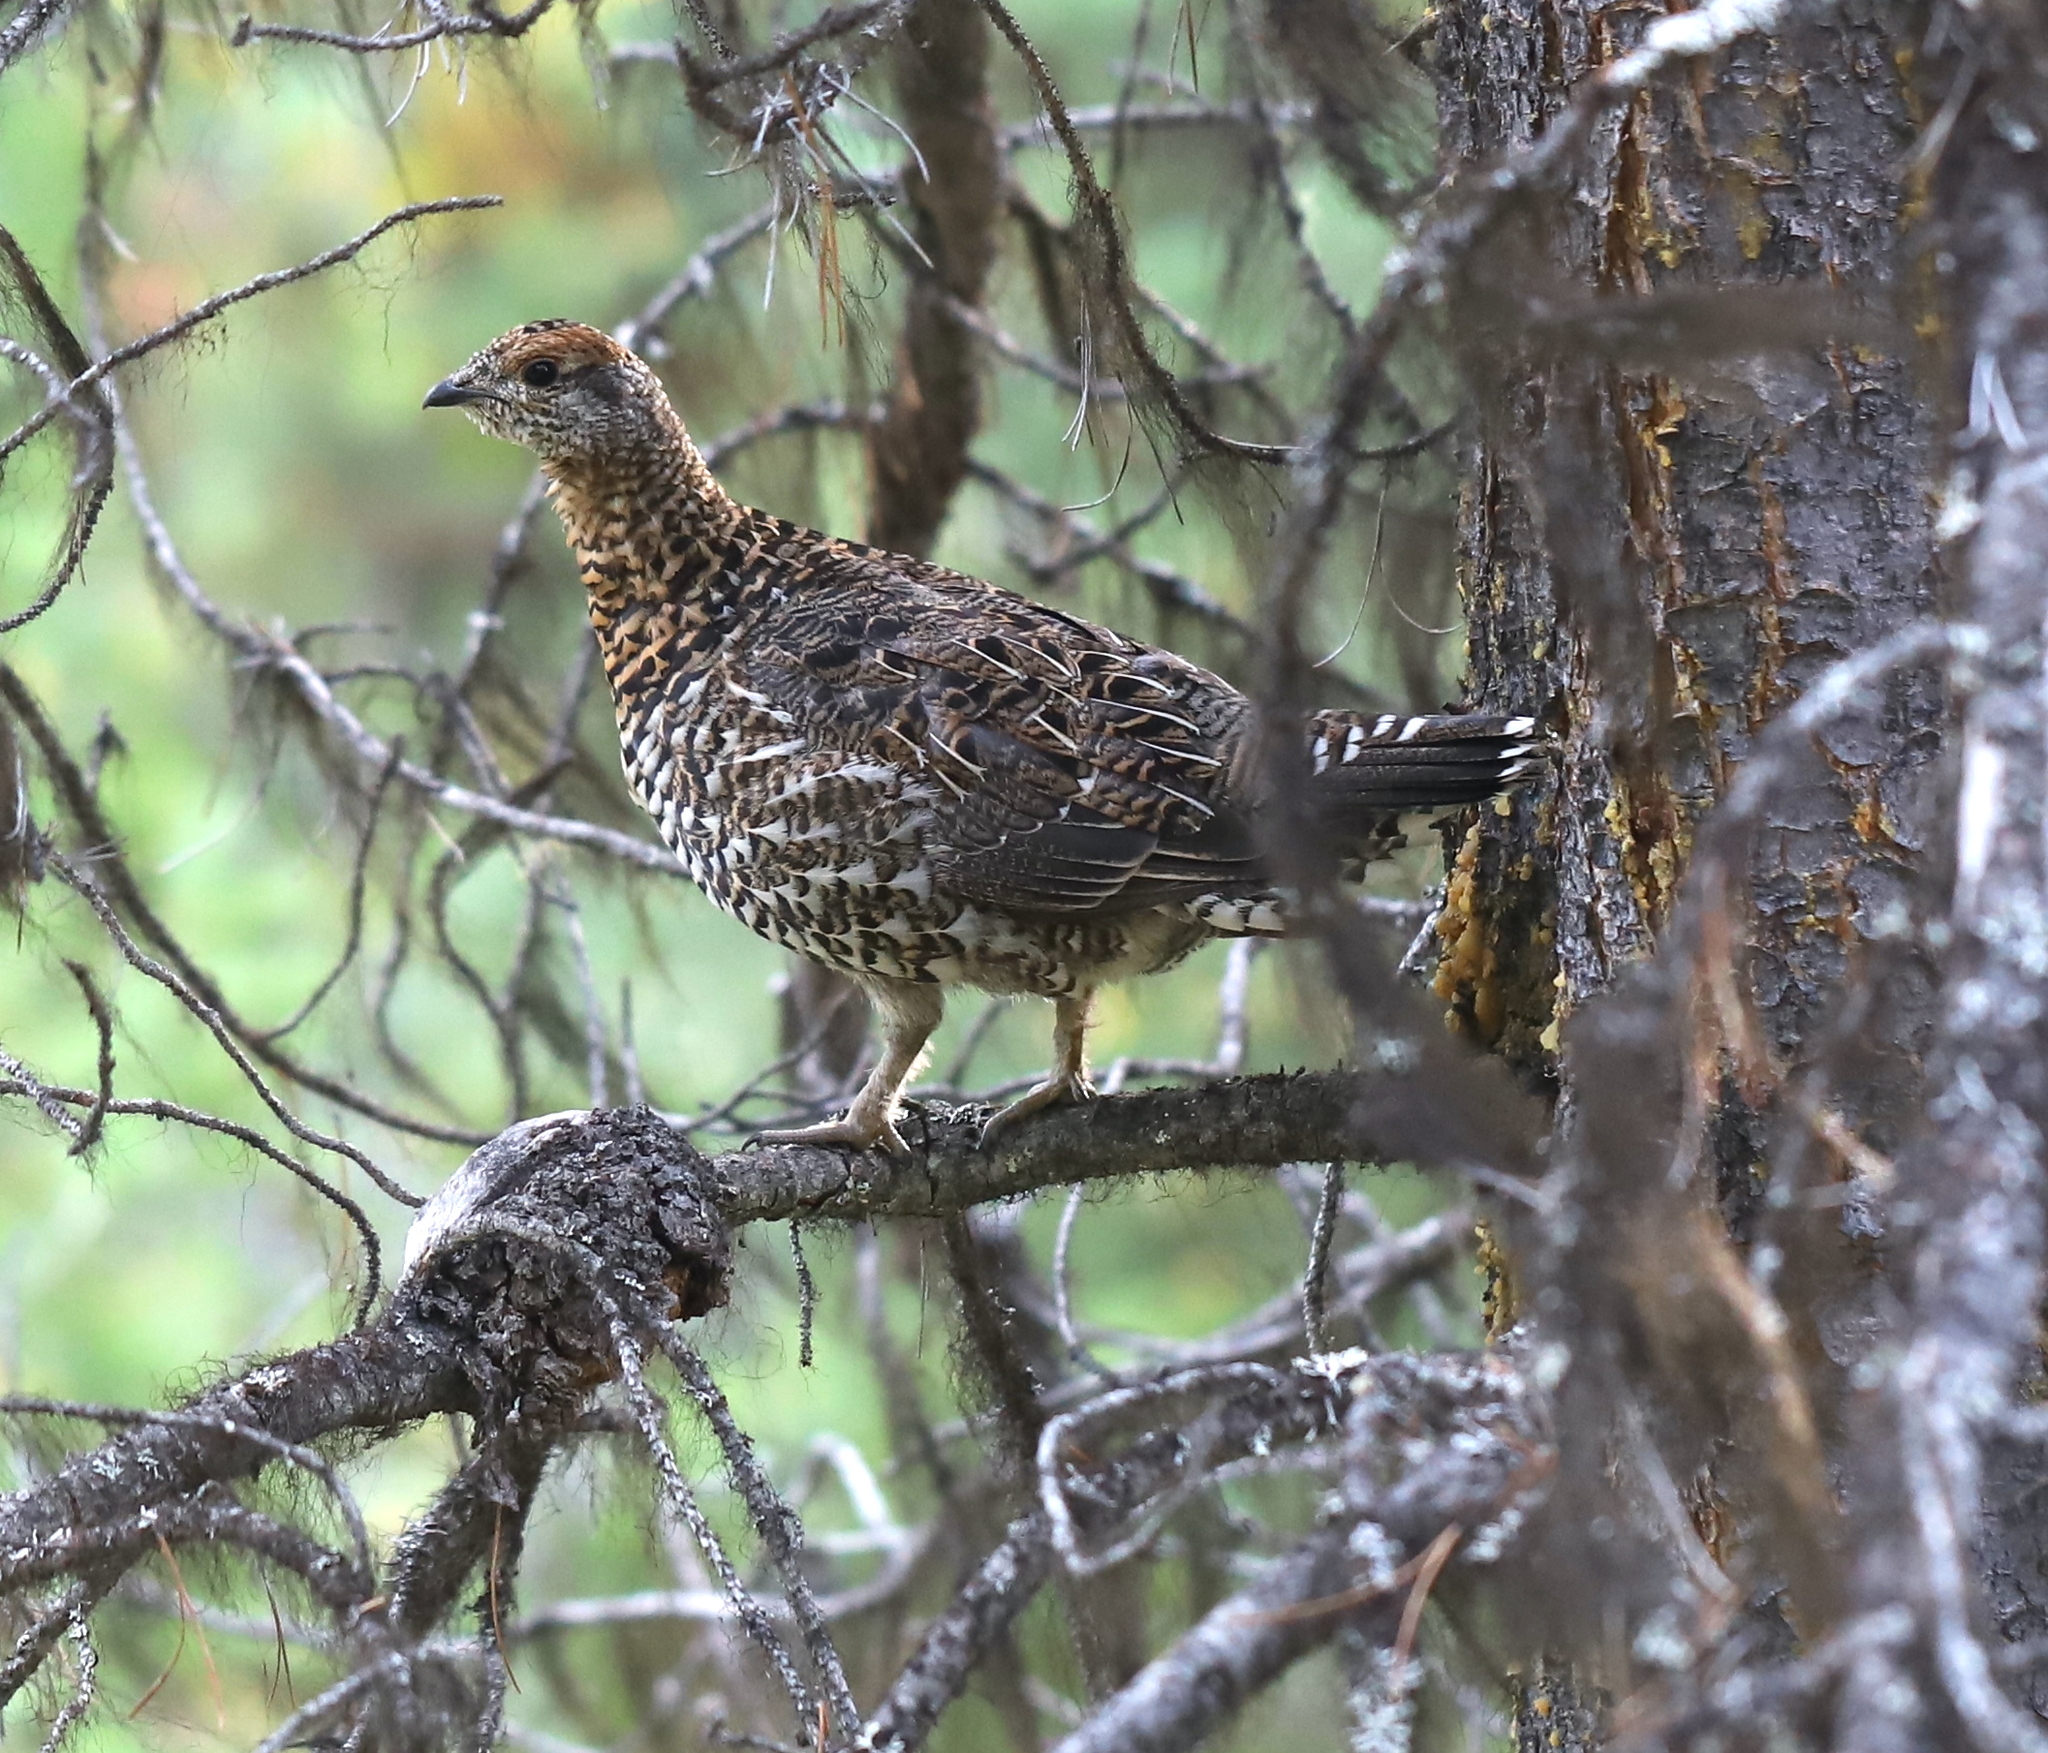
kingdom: Animalia
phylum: Chordata
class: Aves
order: Galliformes
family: Phasianidae
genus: Canachites
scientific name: Canachites canadensis
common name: Spruce grouse
